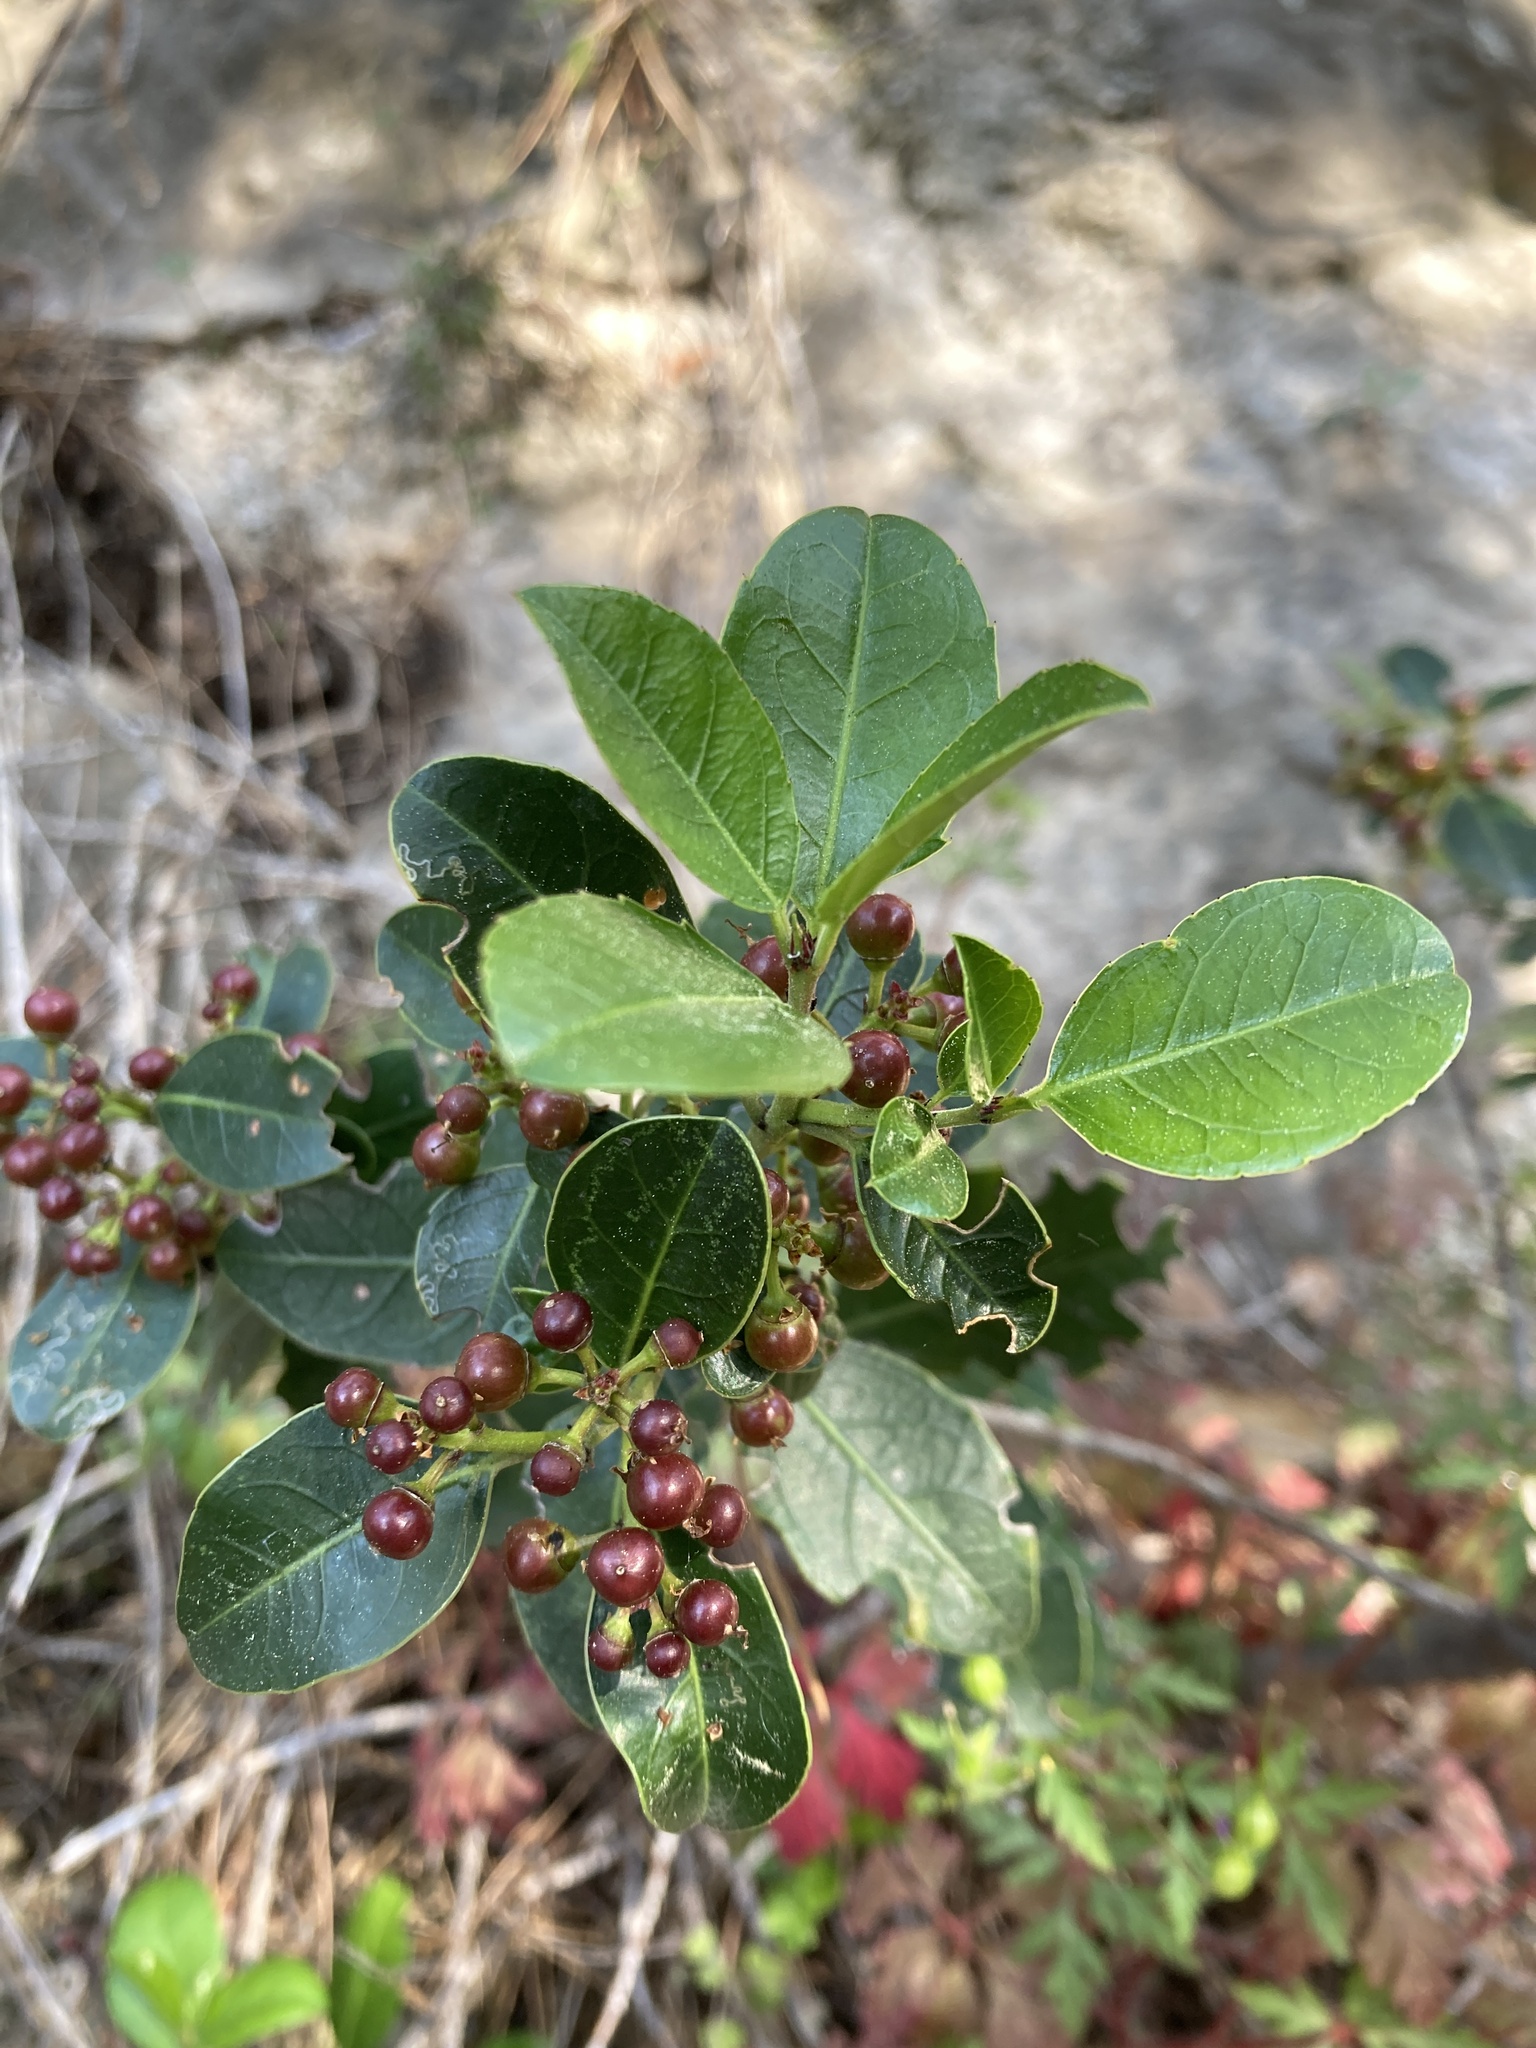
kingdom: Plantae
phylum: Tracheophyta
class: Magnoliopsida
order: Rosales
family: Rhamnaceae
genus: Rhamnus
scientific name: Rhamnus alaternus
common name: Mediterranean buckthorn
